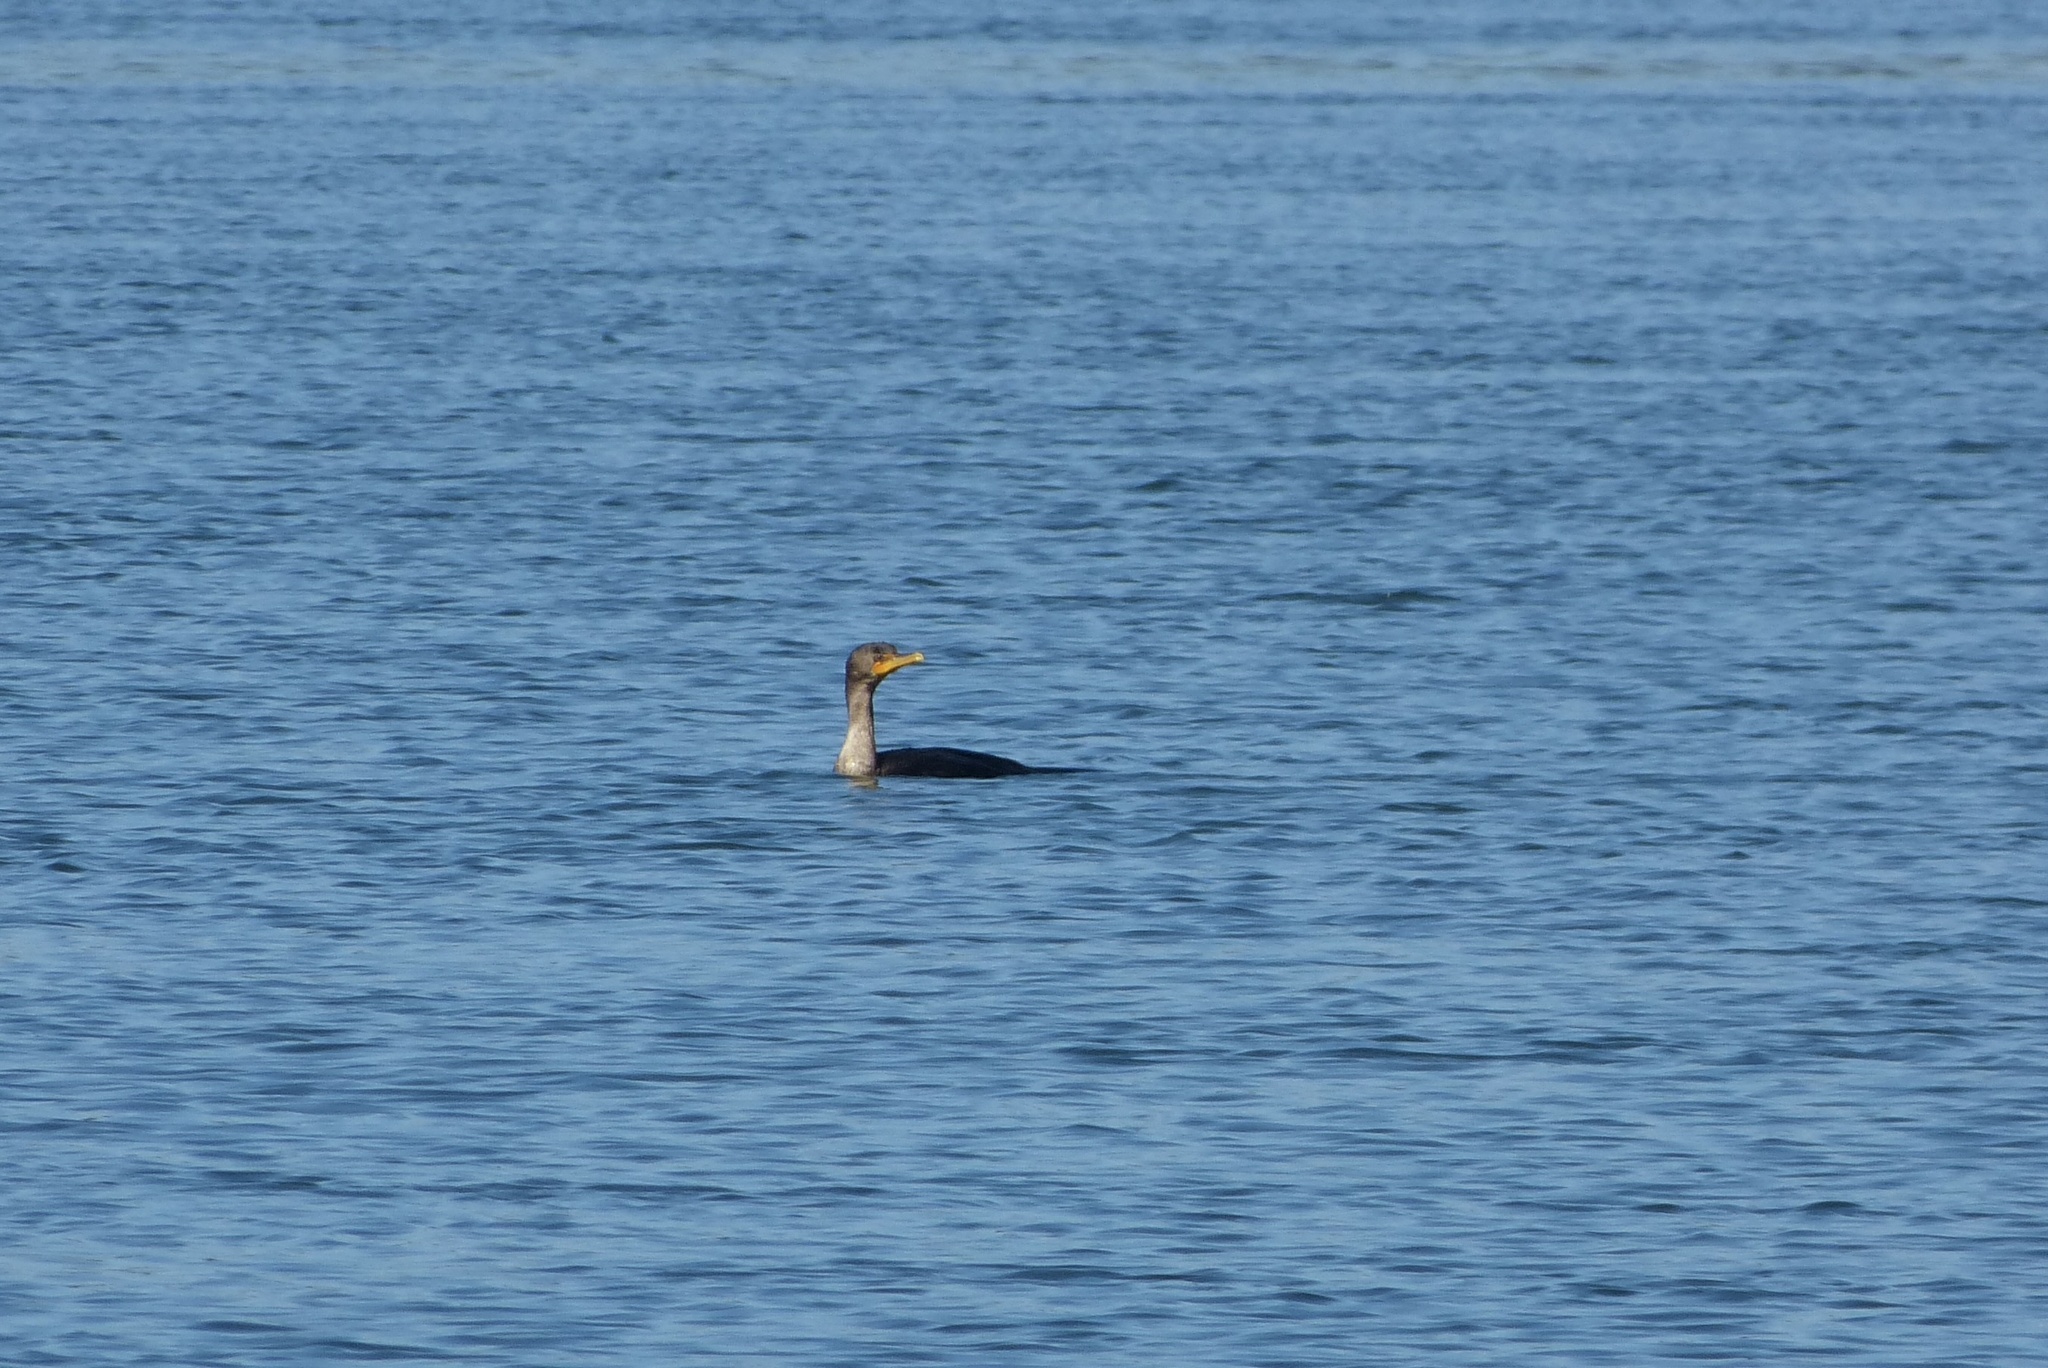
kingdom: Animalia
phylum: Chordata
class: Aves
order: Suliformes
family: Phalacrocoracidae
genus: Phalacrocorax
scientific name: Phalacrocorax auritus
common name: Double-crested cormorant
